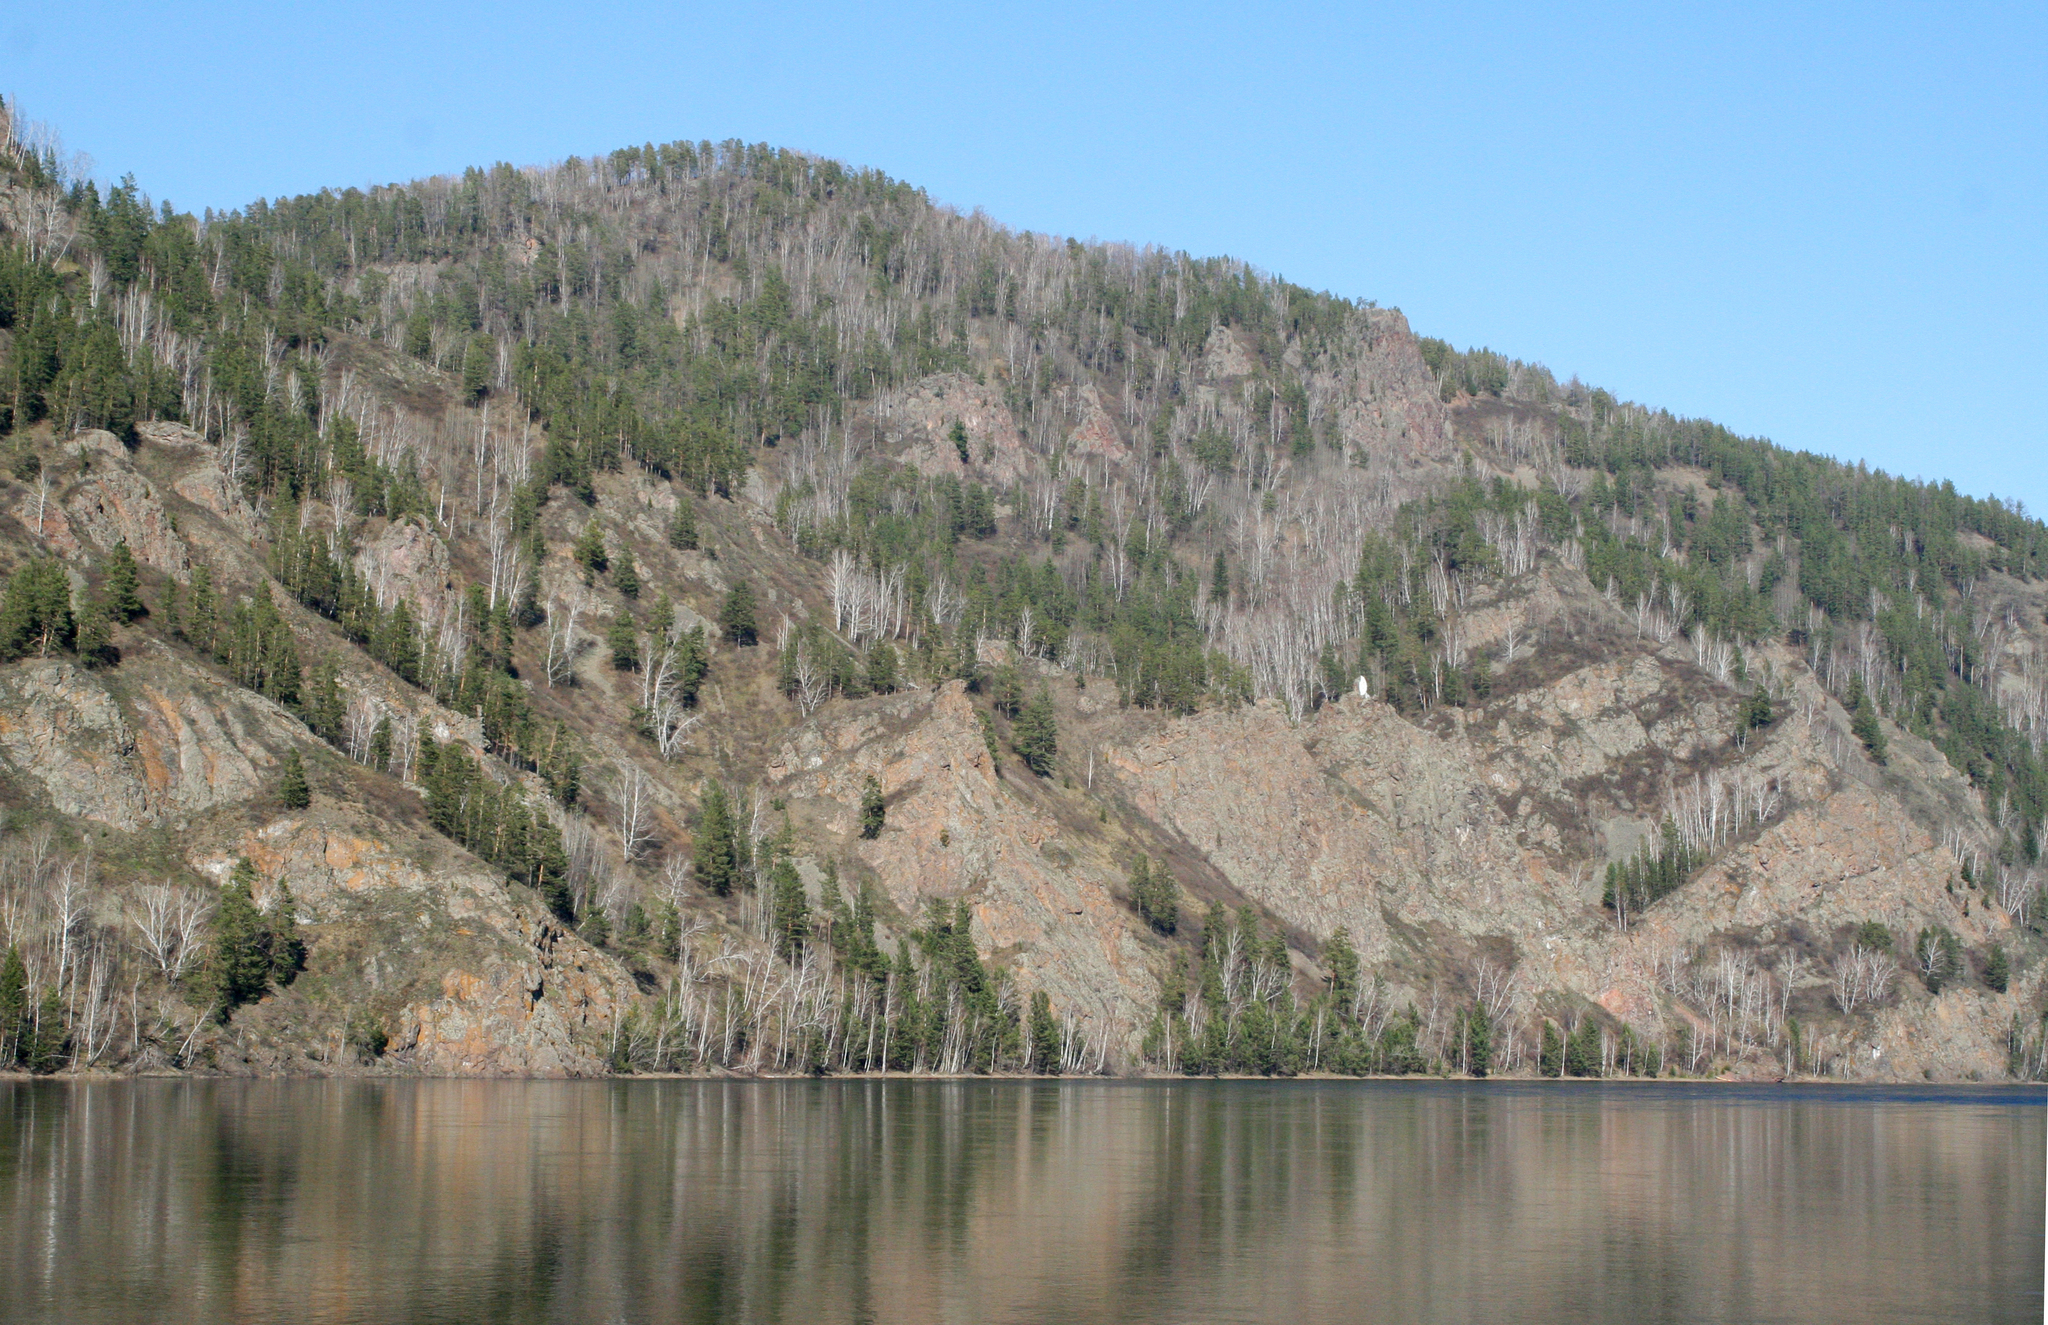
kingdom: Plantae
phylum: Tracheophyta
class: Pinopsida
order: Pinales
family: Pinaceae
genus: Pinus
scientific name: Pinus sylvestris
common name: Scots pine
